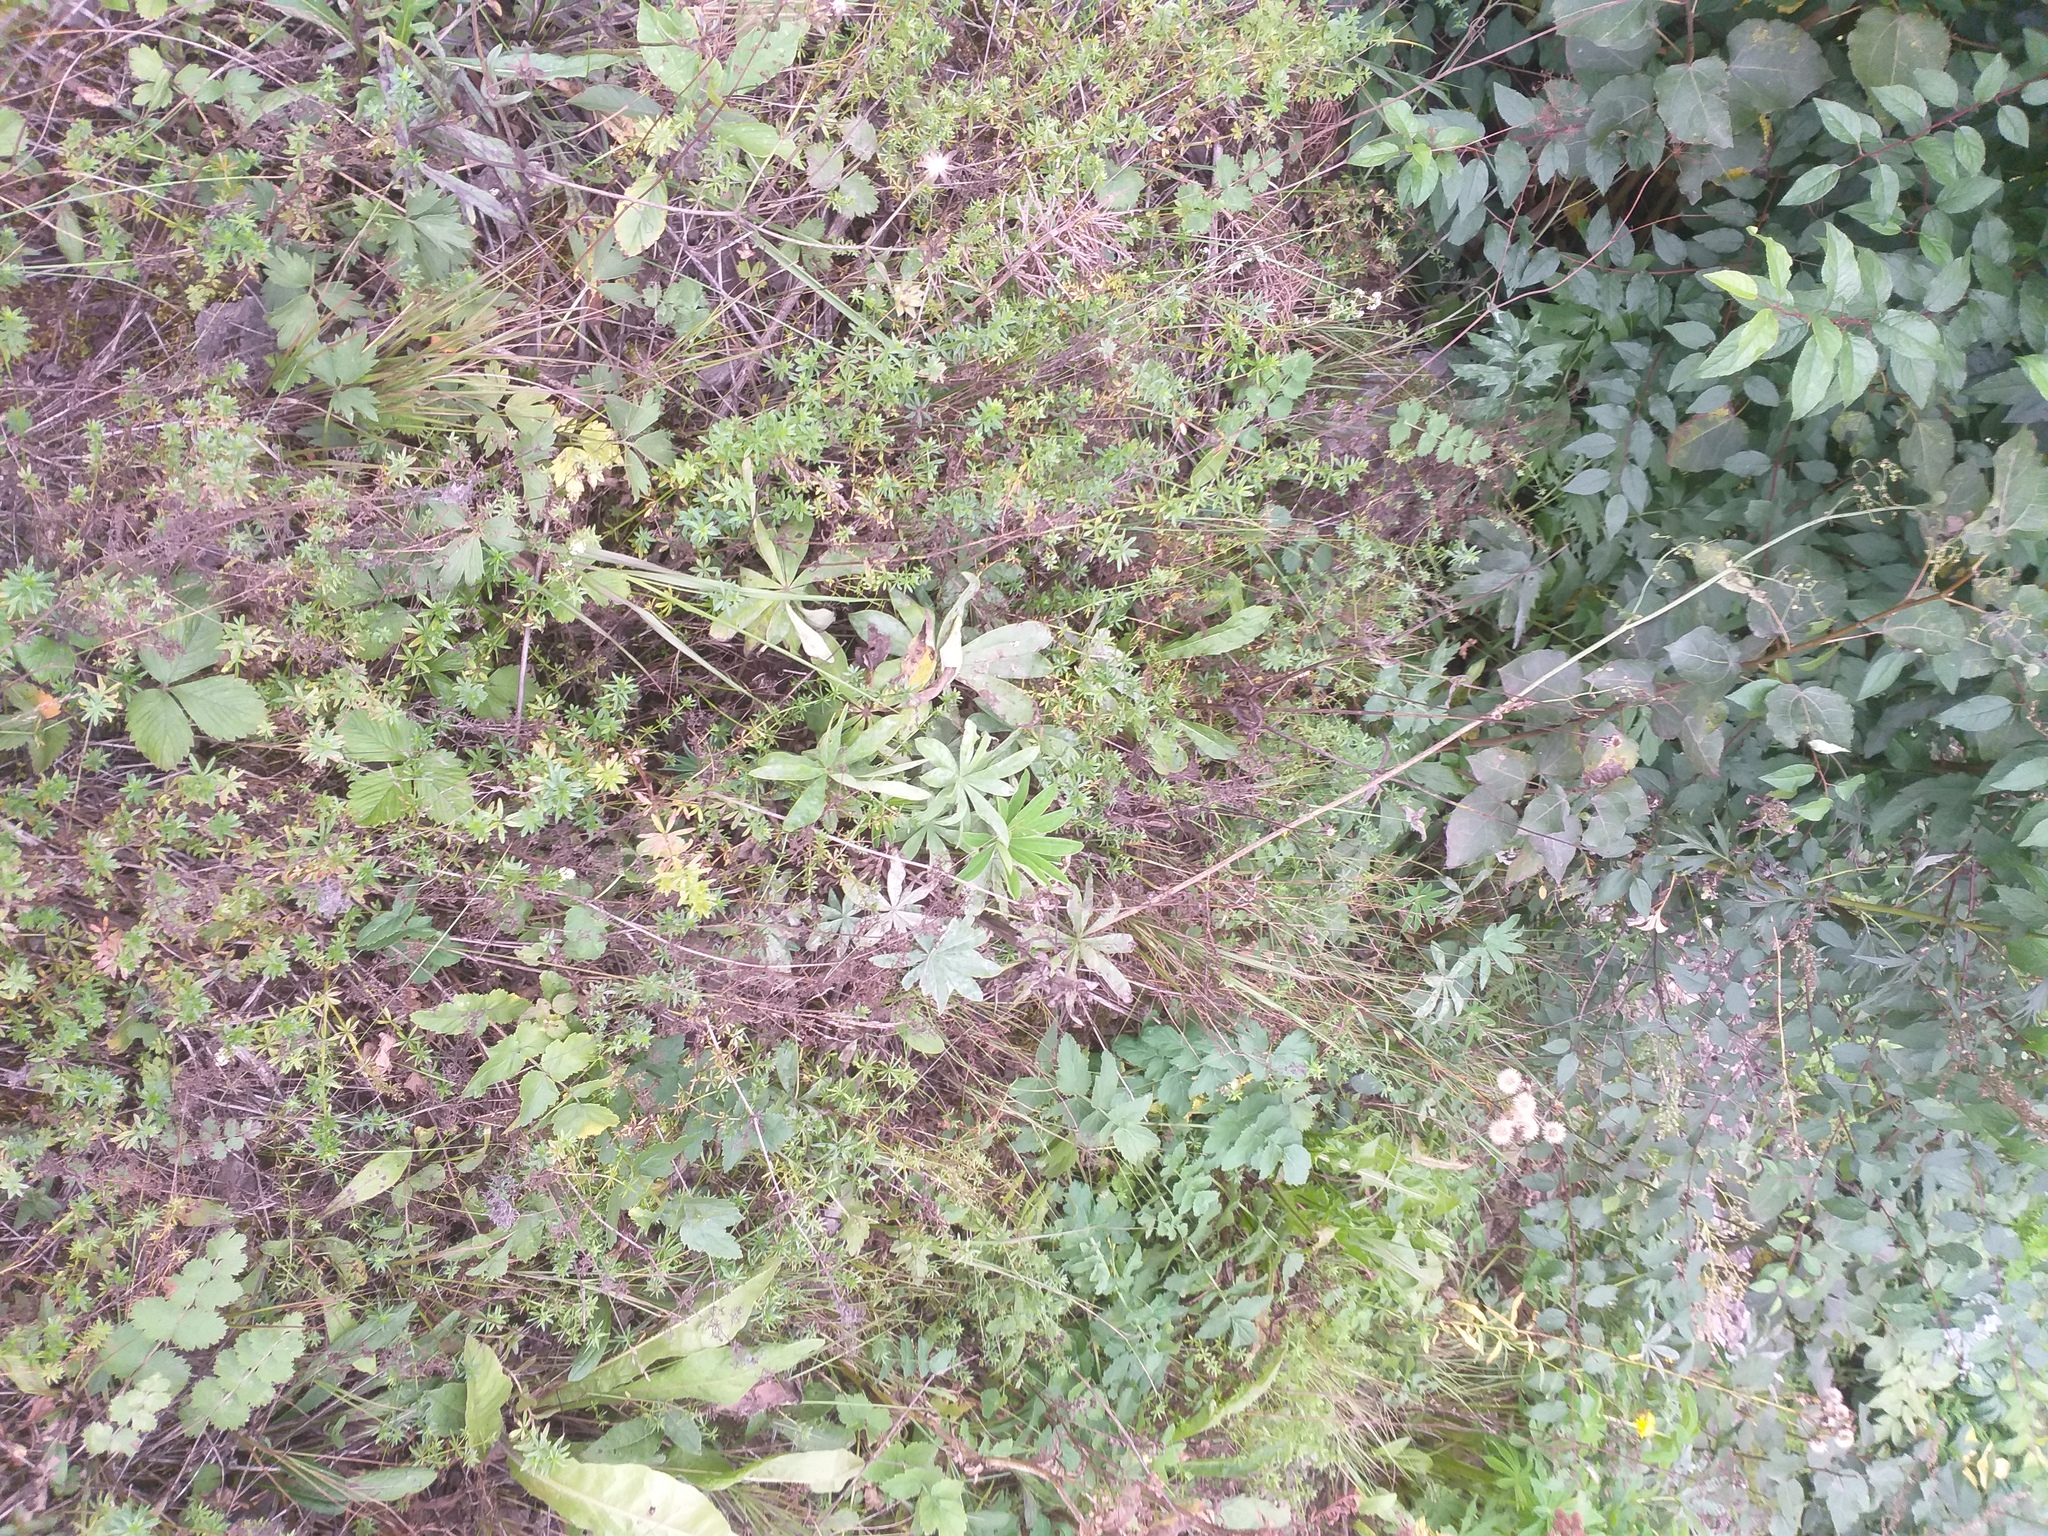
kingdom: Plantae
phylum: Tracheophyta
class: Magnoliopsida
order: Fabales
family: Fabaceae
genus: Lupinus
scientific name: Lupinus polyphyllus
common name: Garden lupin
